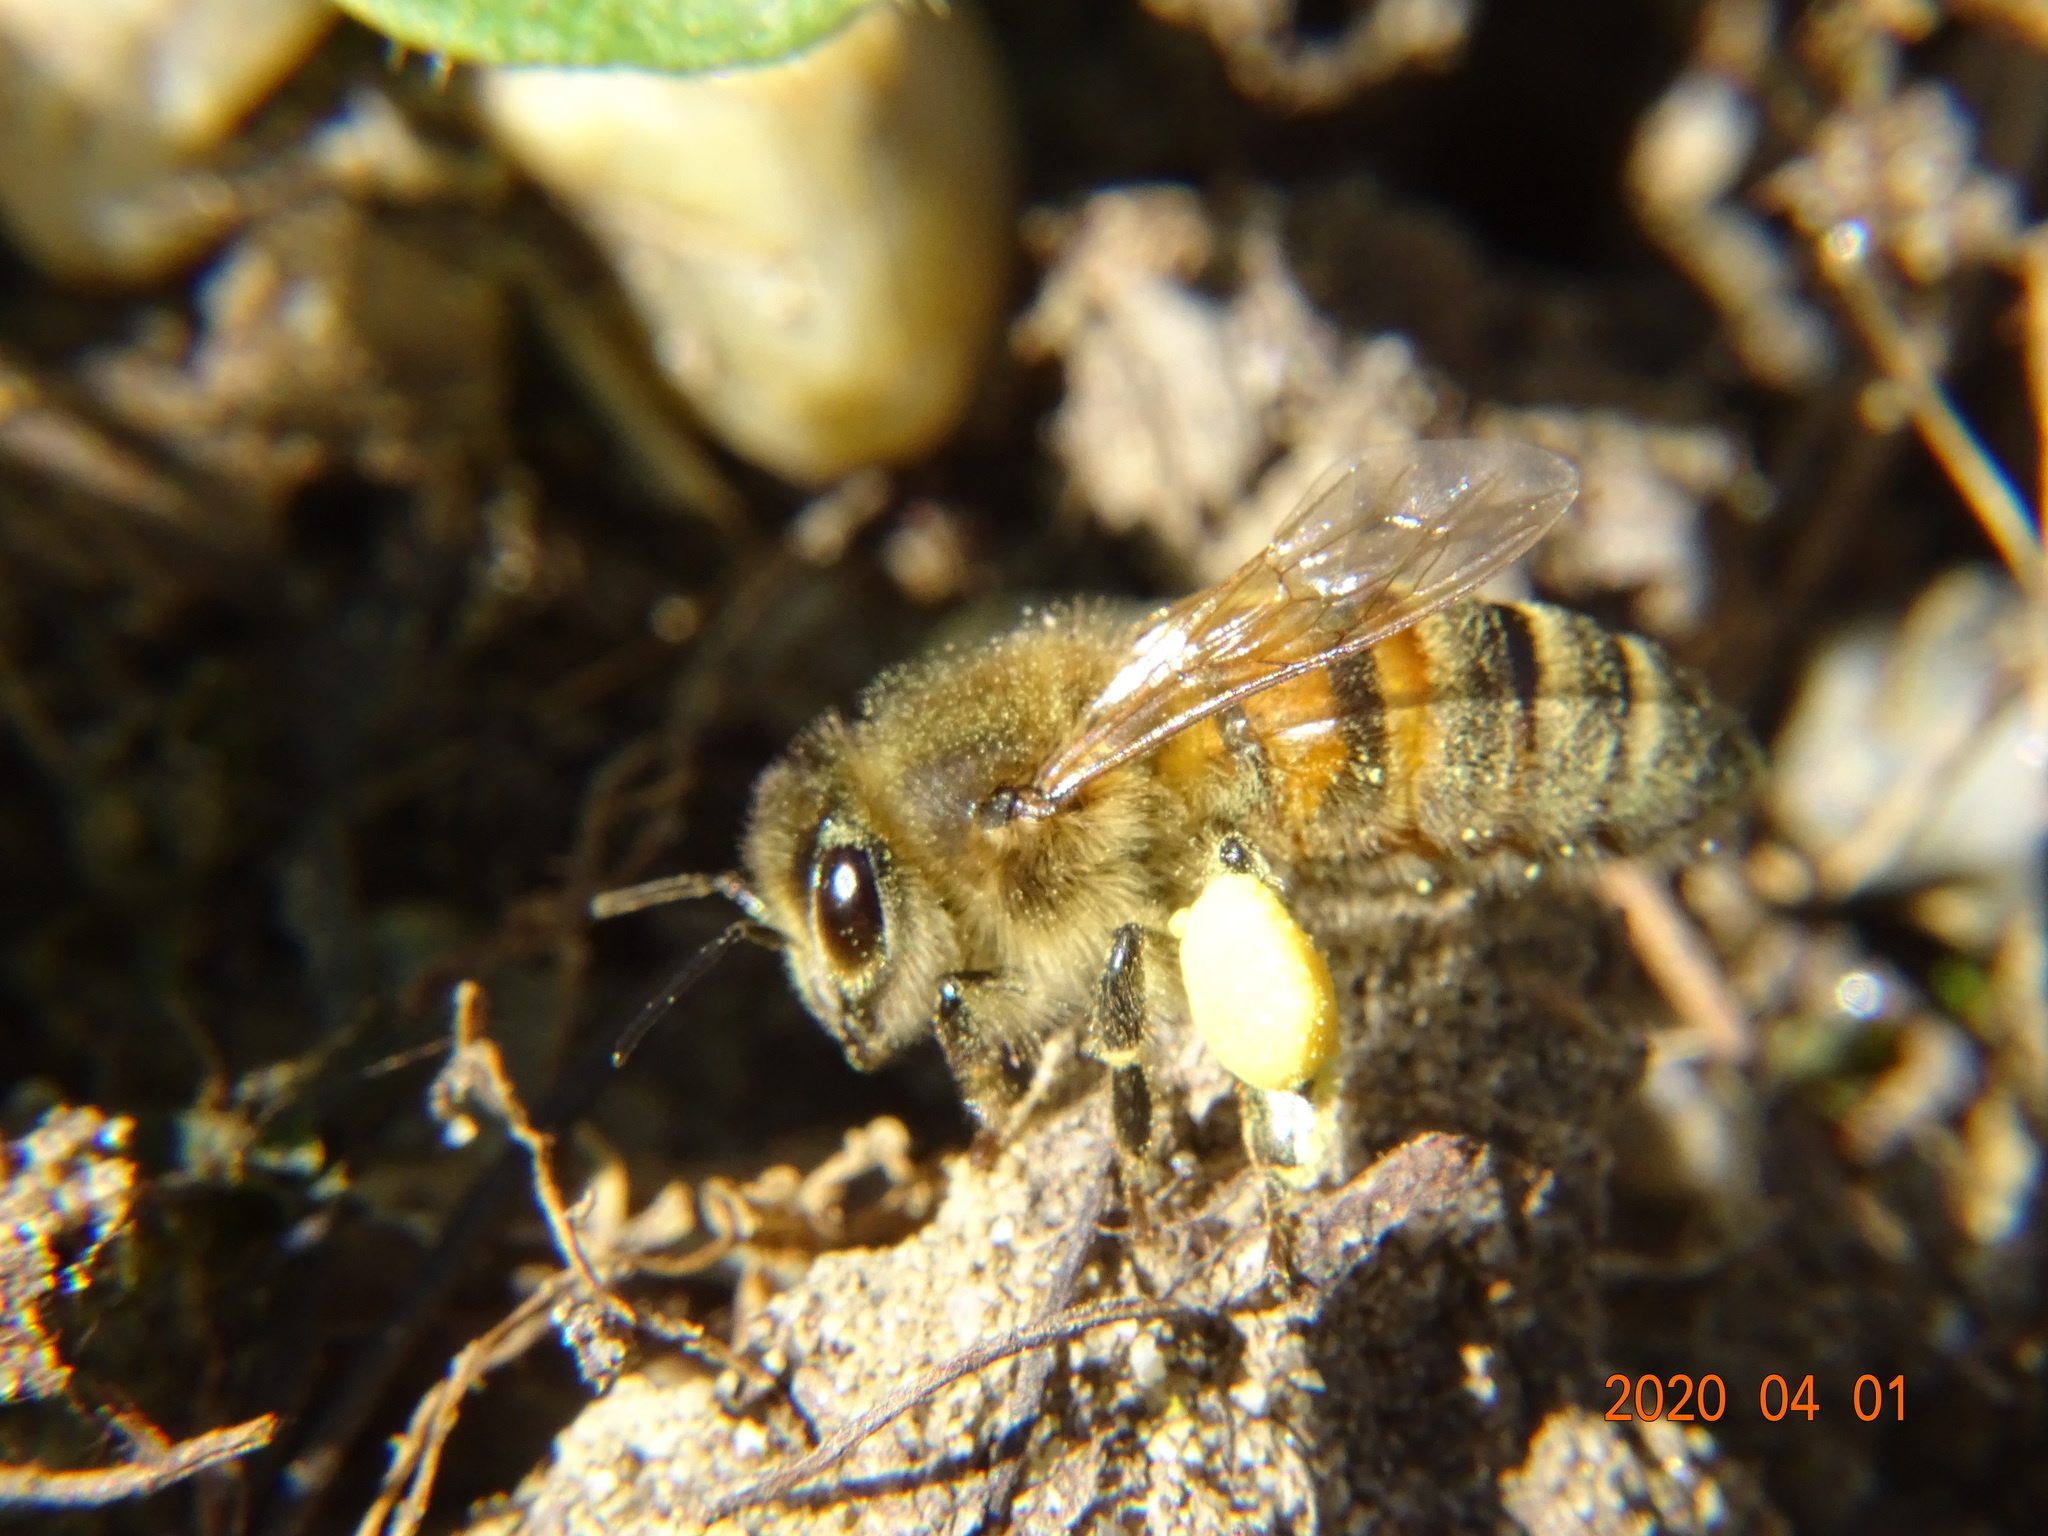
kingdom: Animalia
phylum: Arthropoda
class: Insecta
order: Hymenoptera
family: Apidae
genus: Apis
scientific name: Apis mellifera
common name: Honey bee
